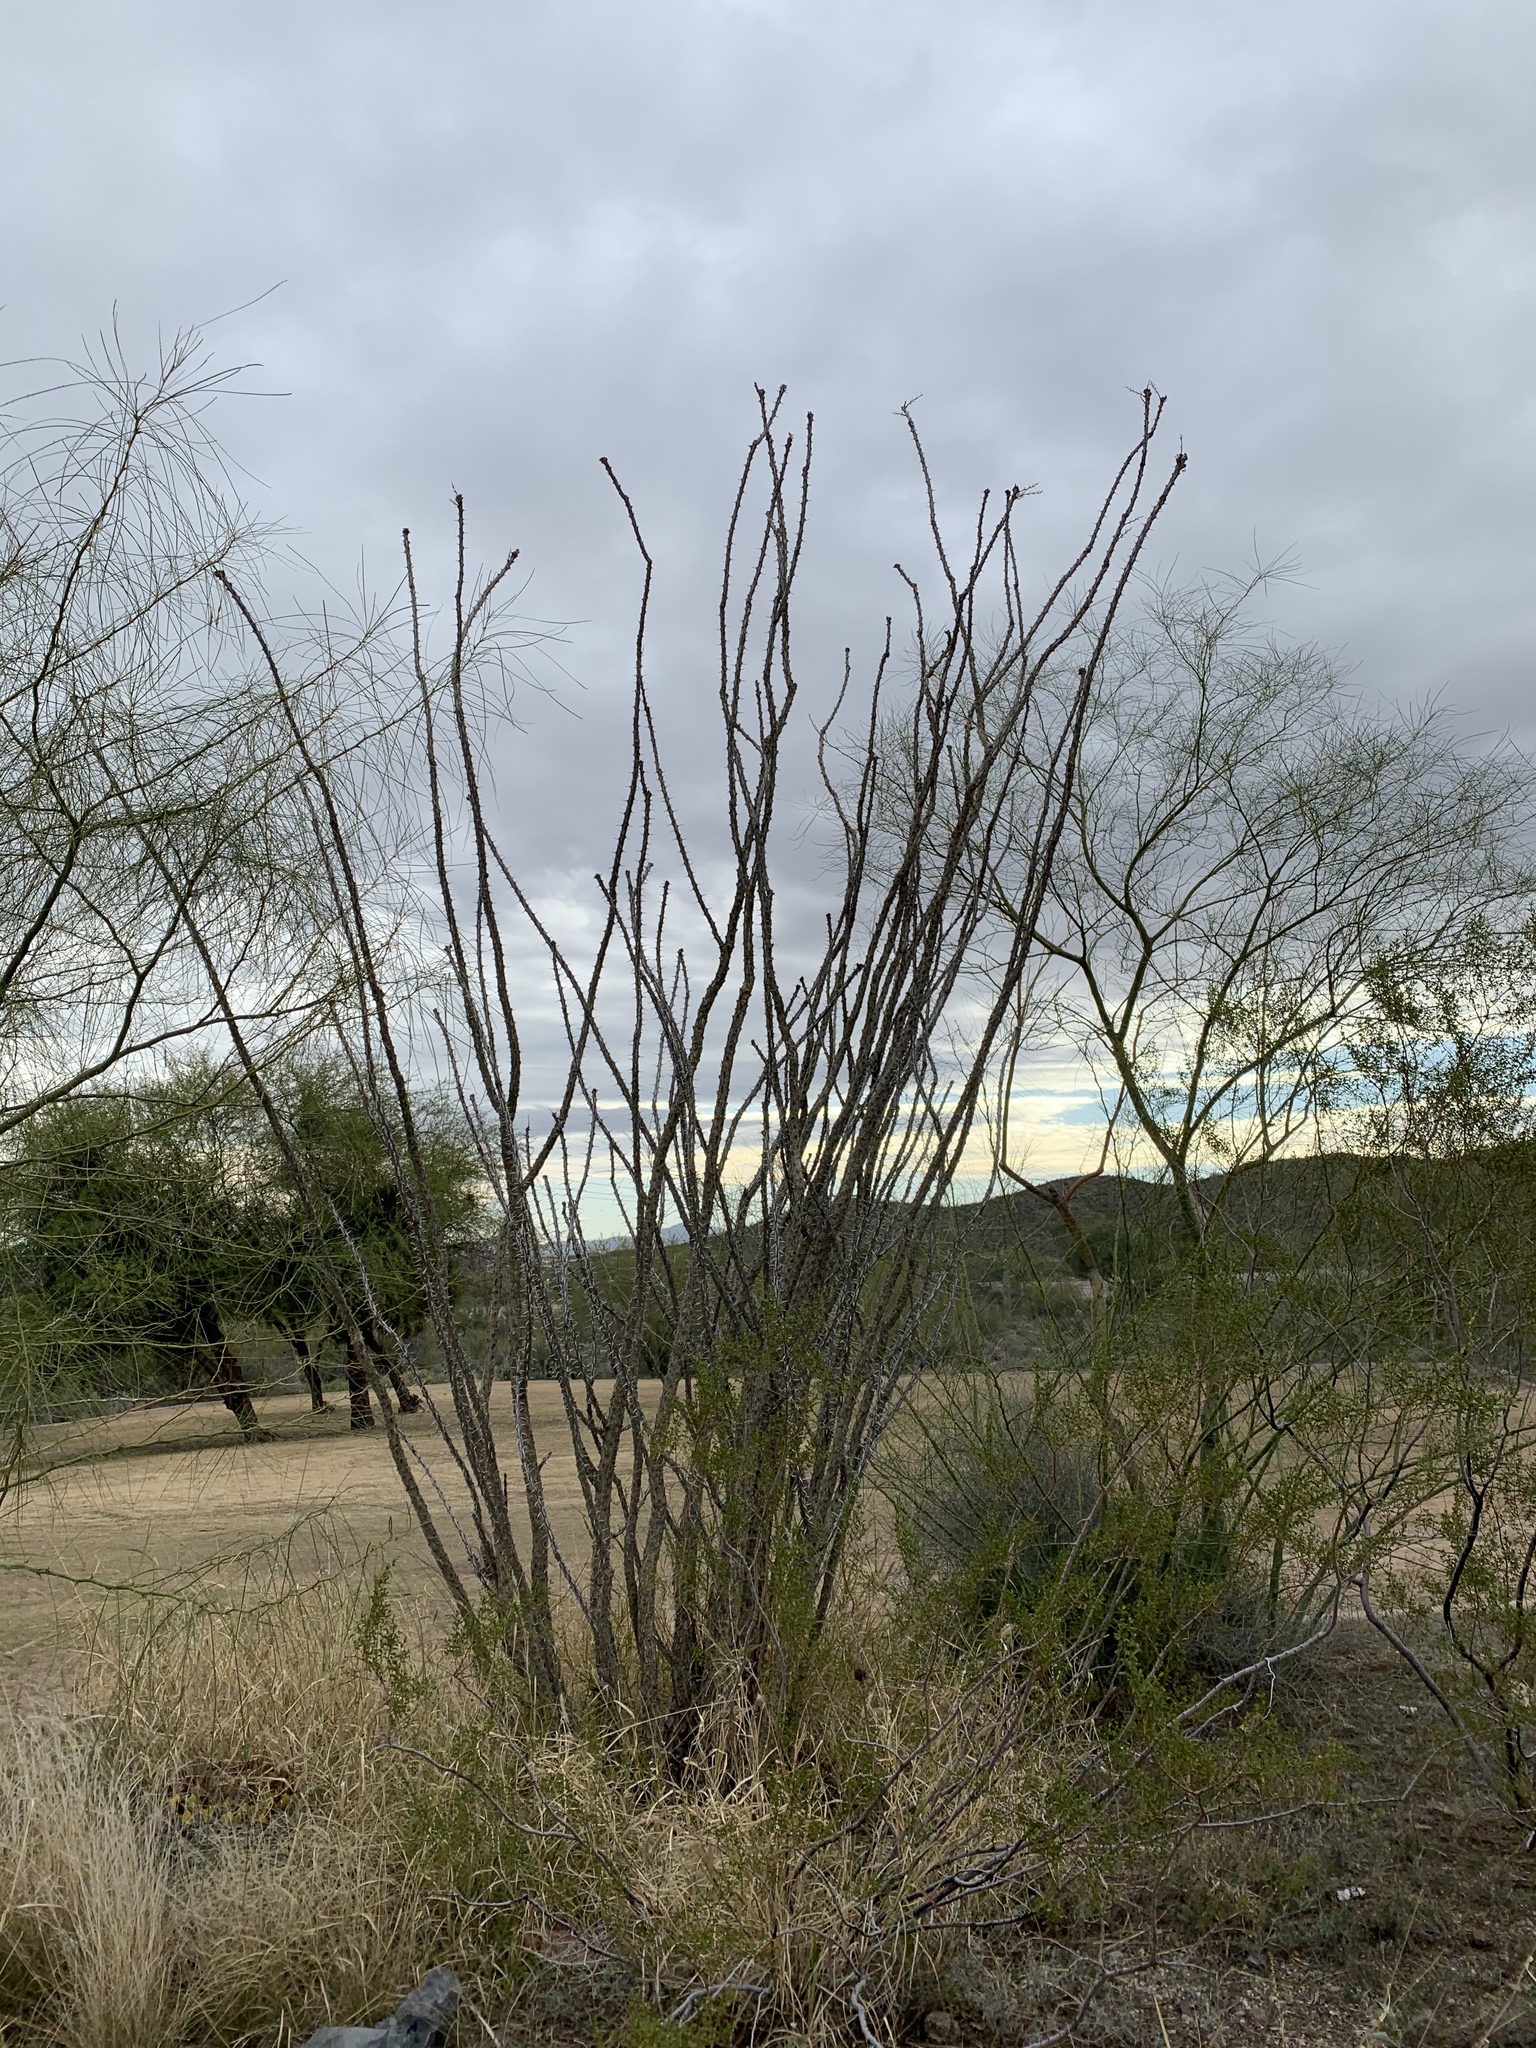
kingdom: Plantae
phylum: Tracheophyta
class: Magnoliopsida
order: Ericales
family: Fouquieriaceae
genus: Fouquieria
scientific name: Fouquieria splendens
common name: Vine-cactus
